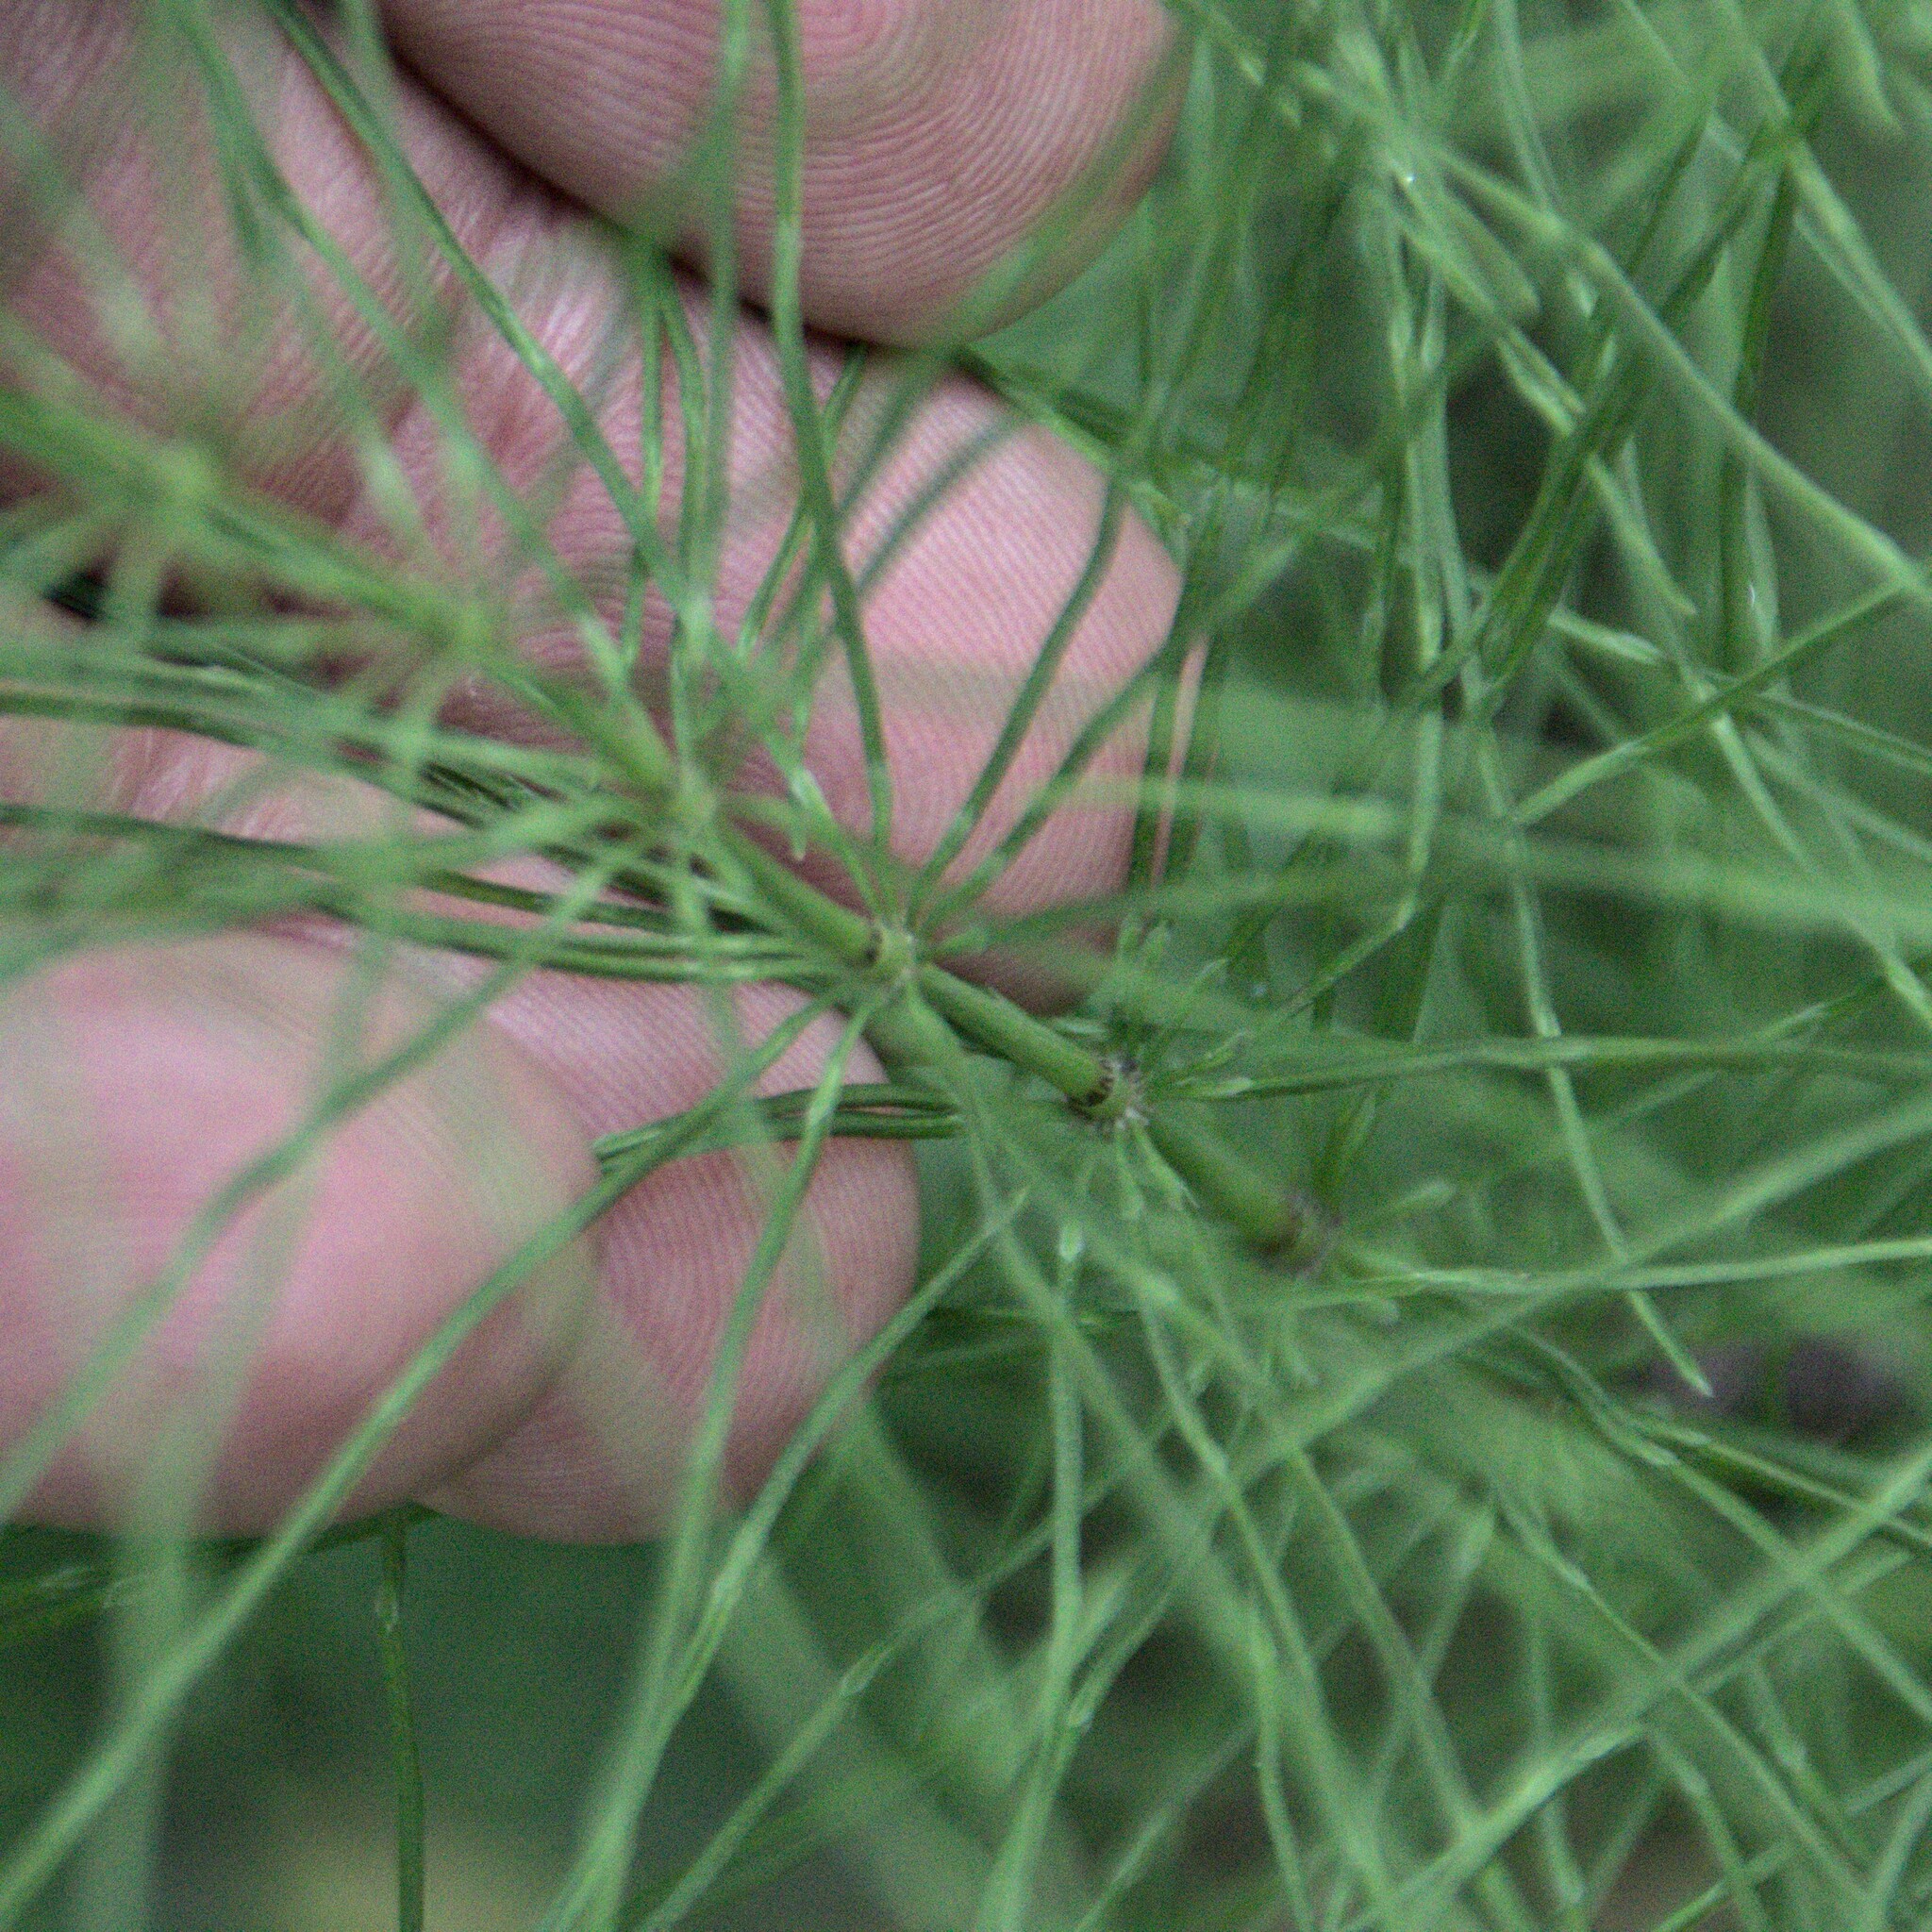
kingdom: Plantae
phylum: Tracheophyta
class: Polypodiopsida
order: Equisetales
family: Equisetaceae
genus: Equisetum
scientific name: Equisetum pratense
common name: Meadow horsetail
